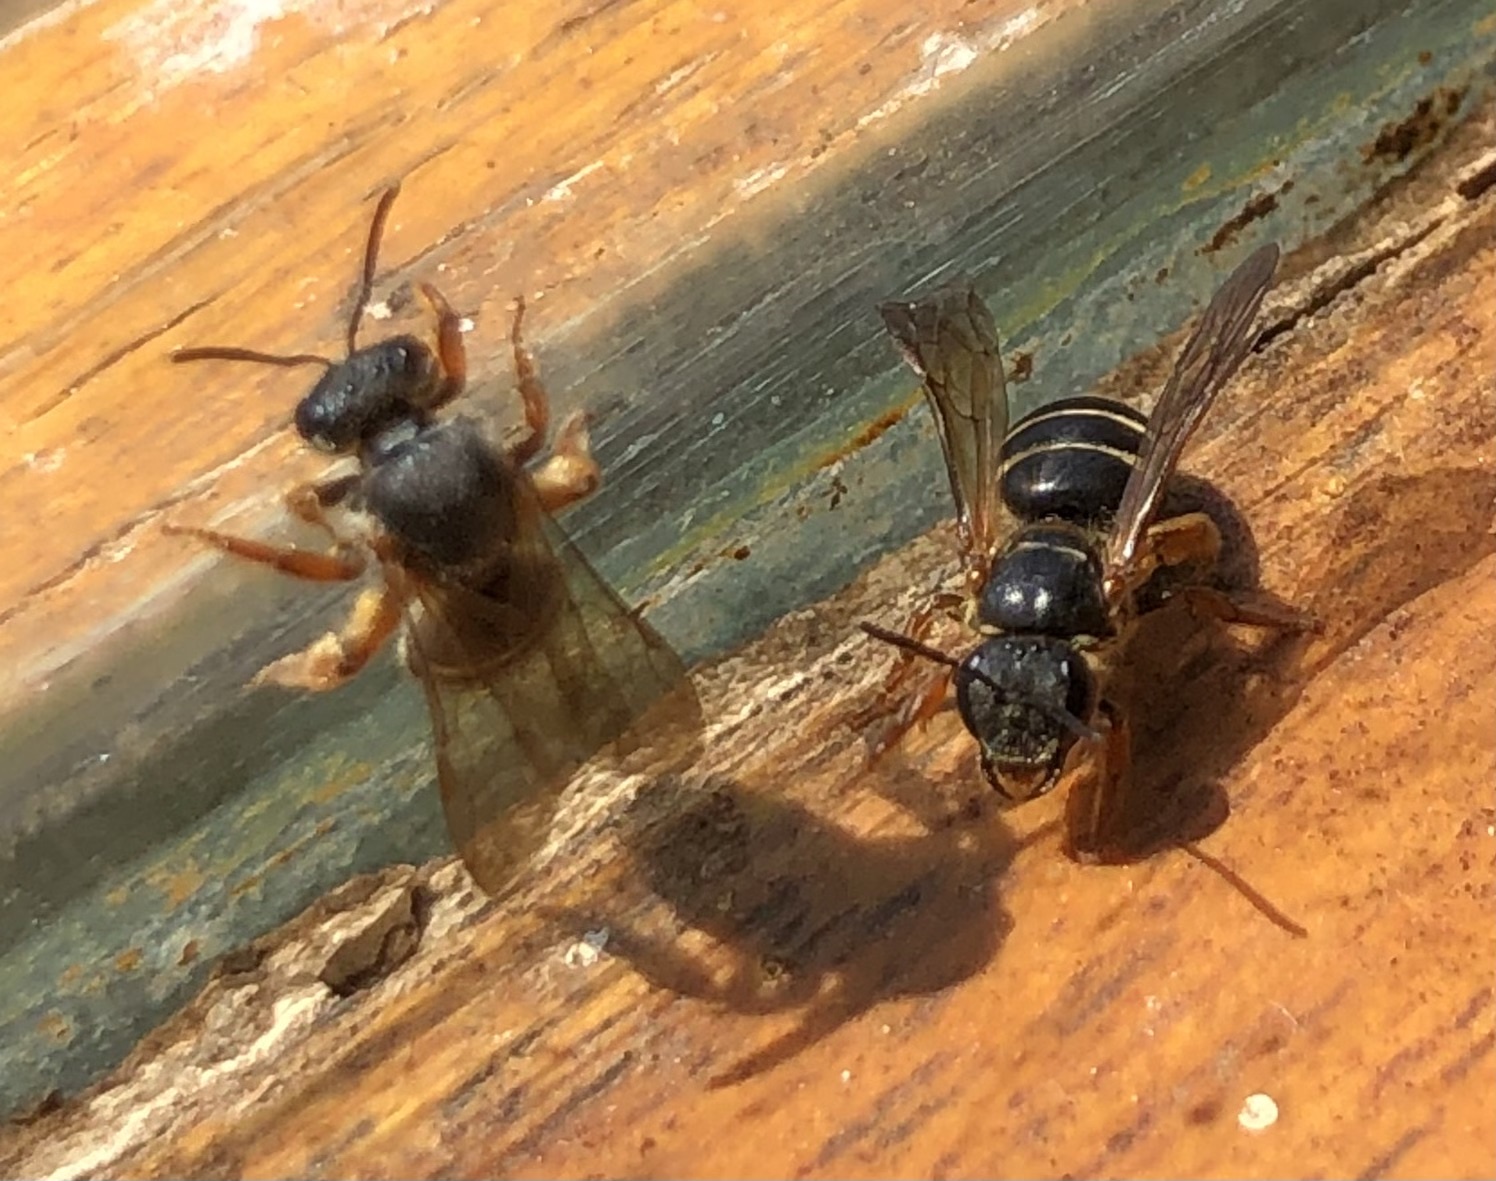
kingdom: Animalia
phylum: Arthropoda
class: Insecta
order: Hymenoptera
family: Halictidae
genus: Lasioglossum
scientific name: Lasioglossum bicingulatum
